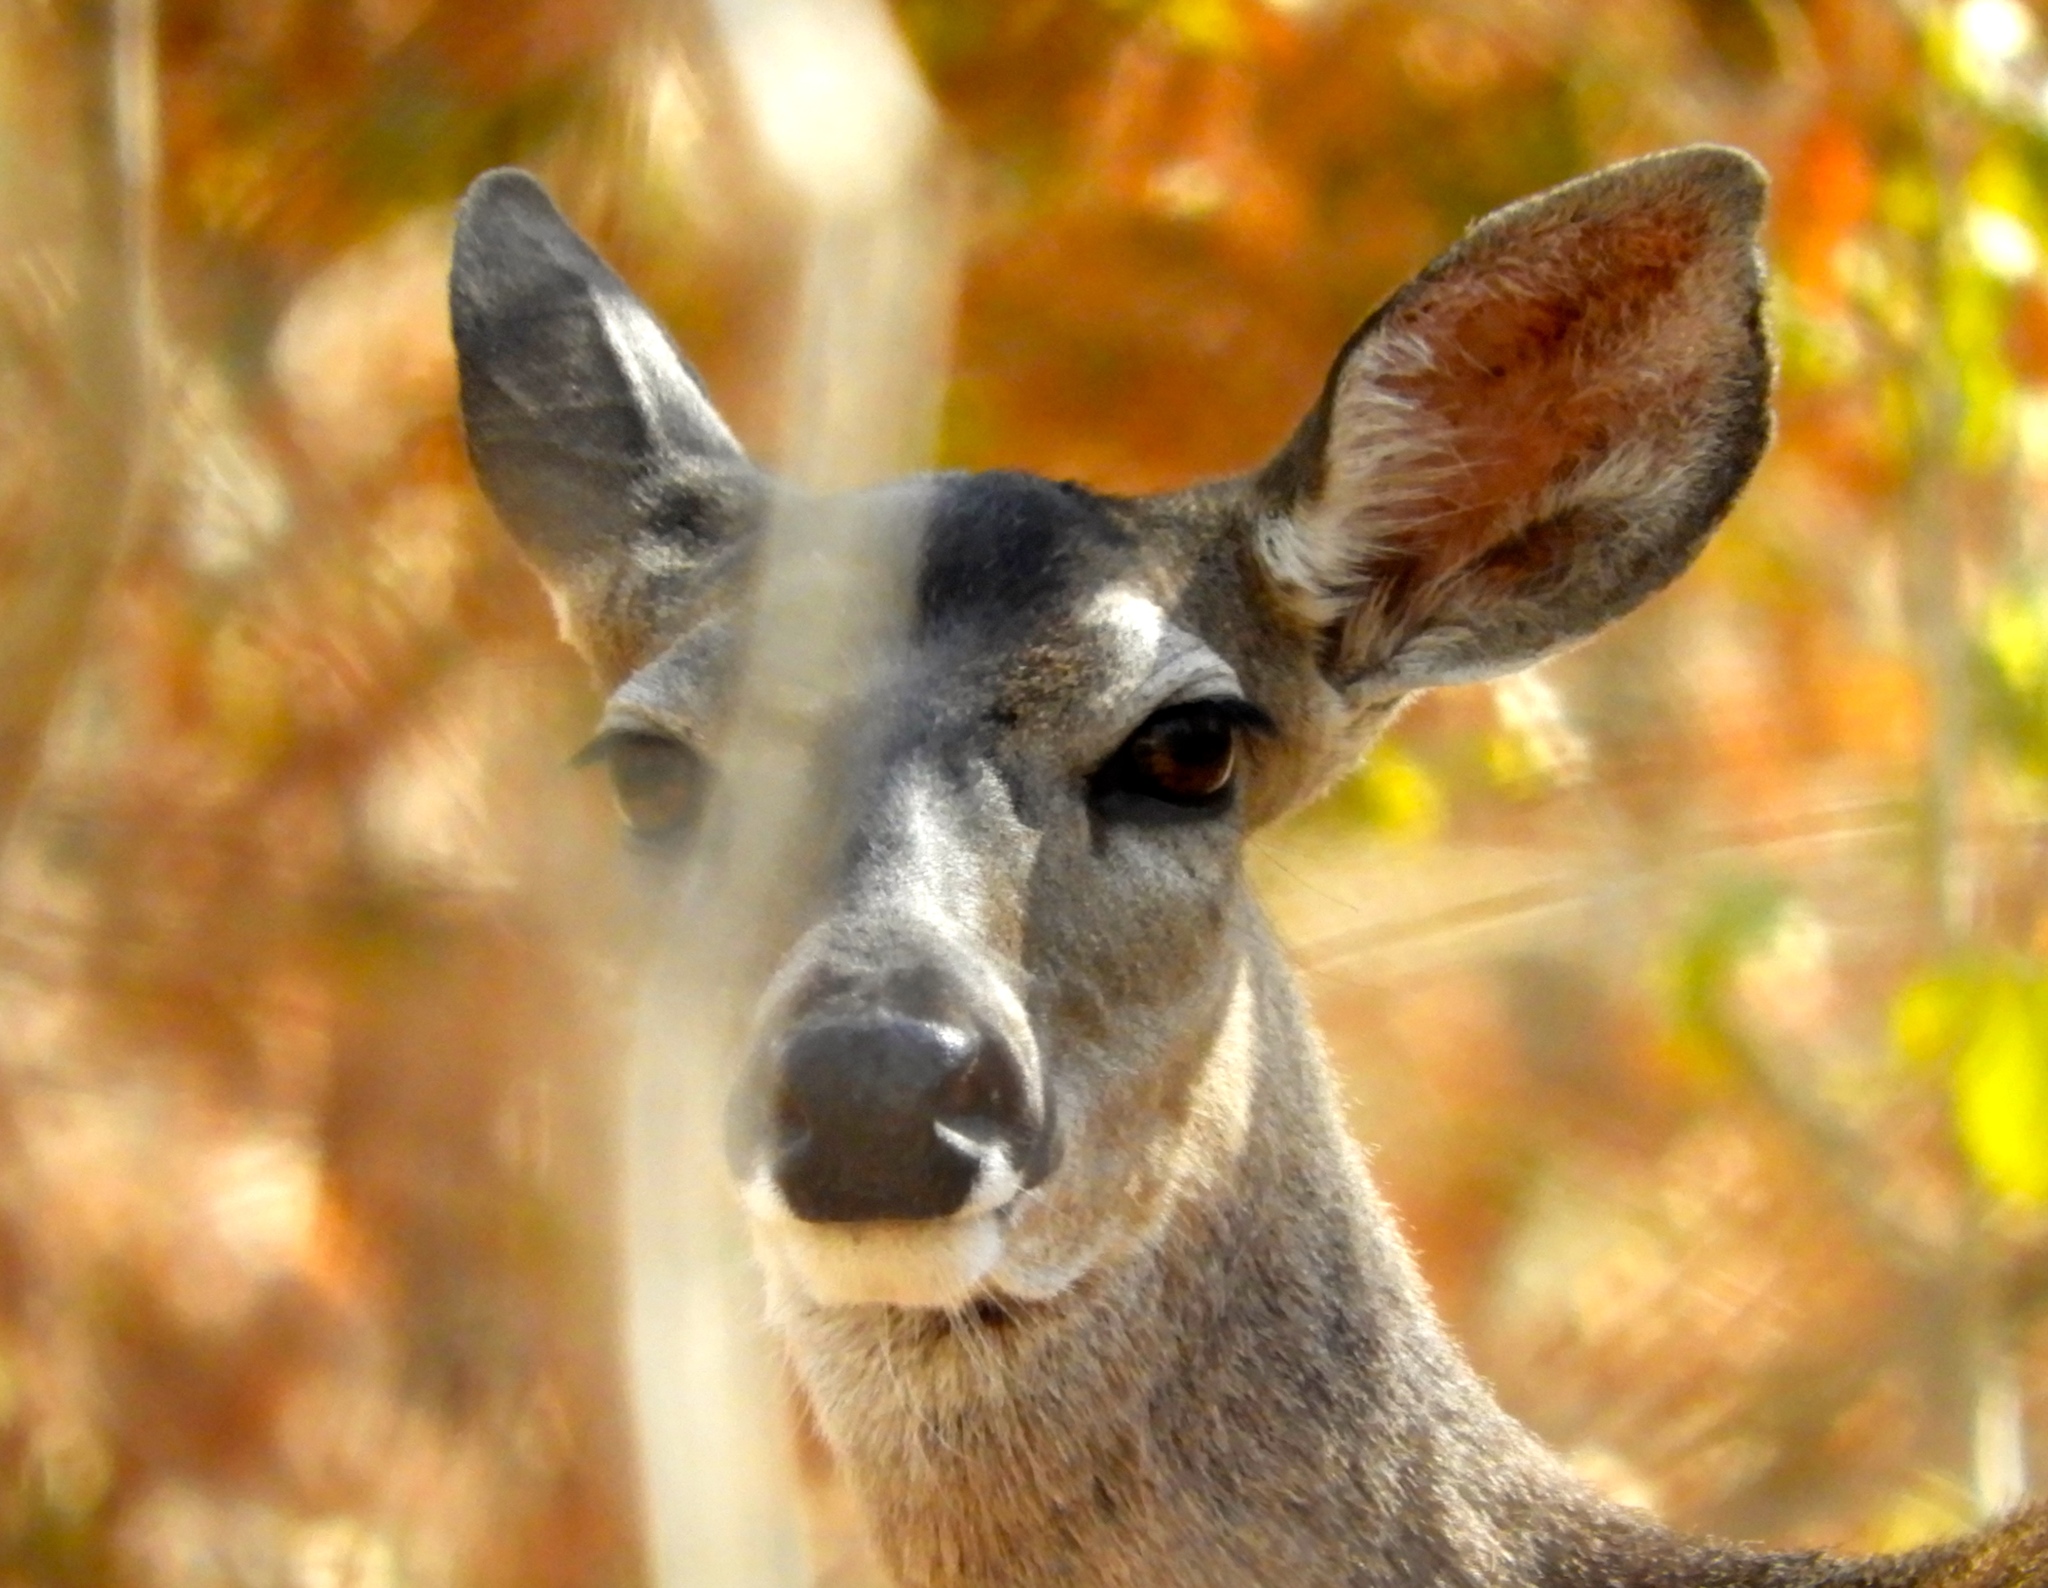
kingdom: Animalia
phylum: Chordata
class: Mammalia
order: Artiodactyla
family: Cervidae
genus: Odocoileus
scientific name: Odocoileus virginianus
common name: White-tailed deer
